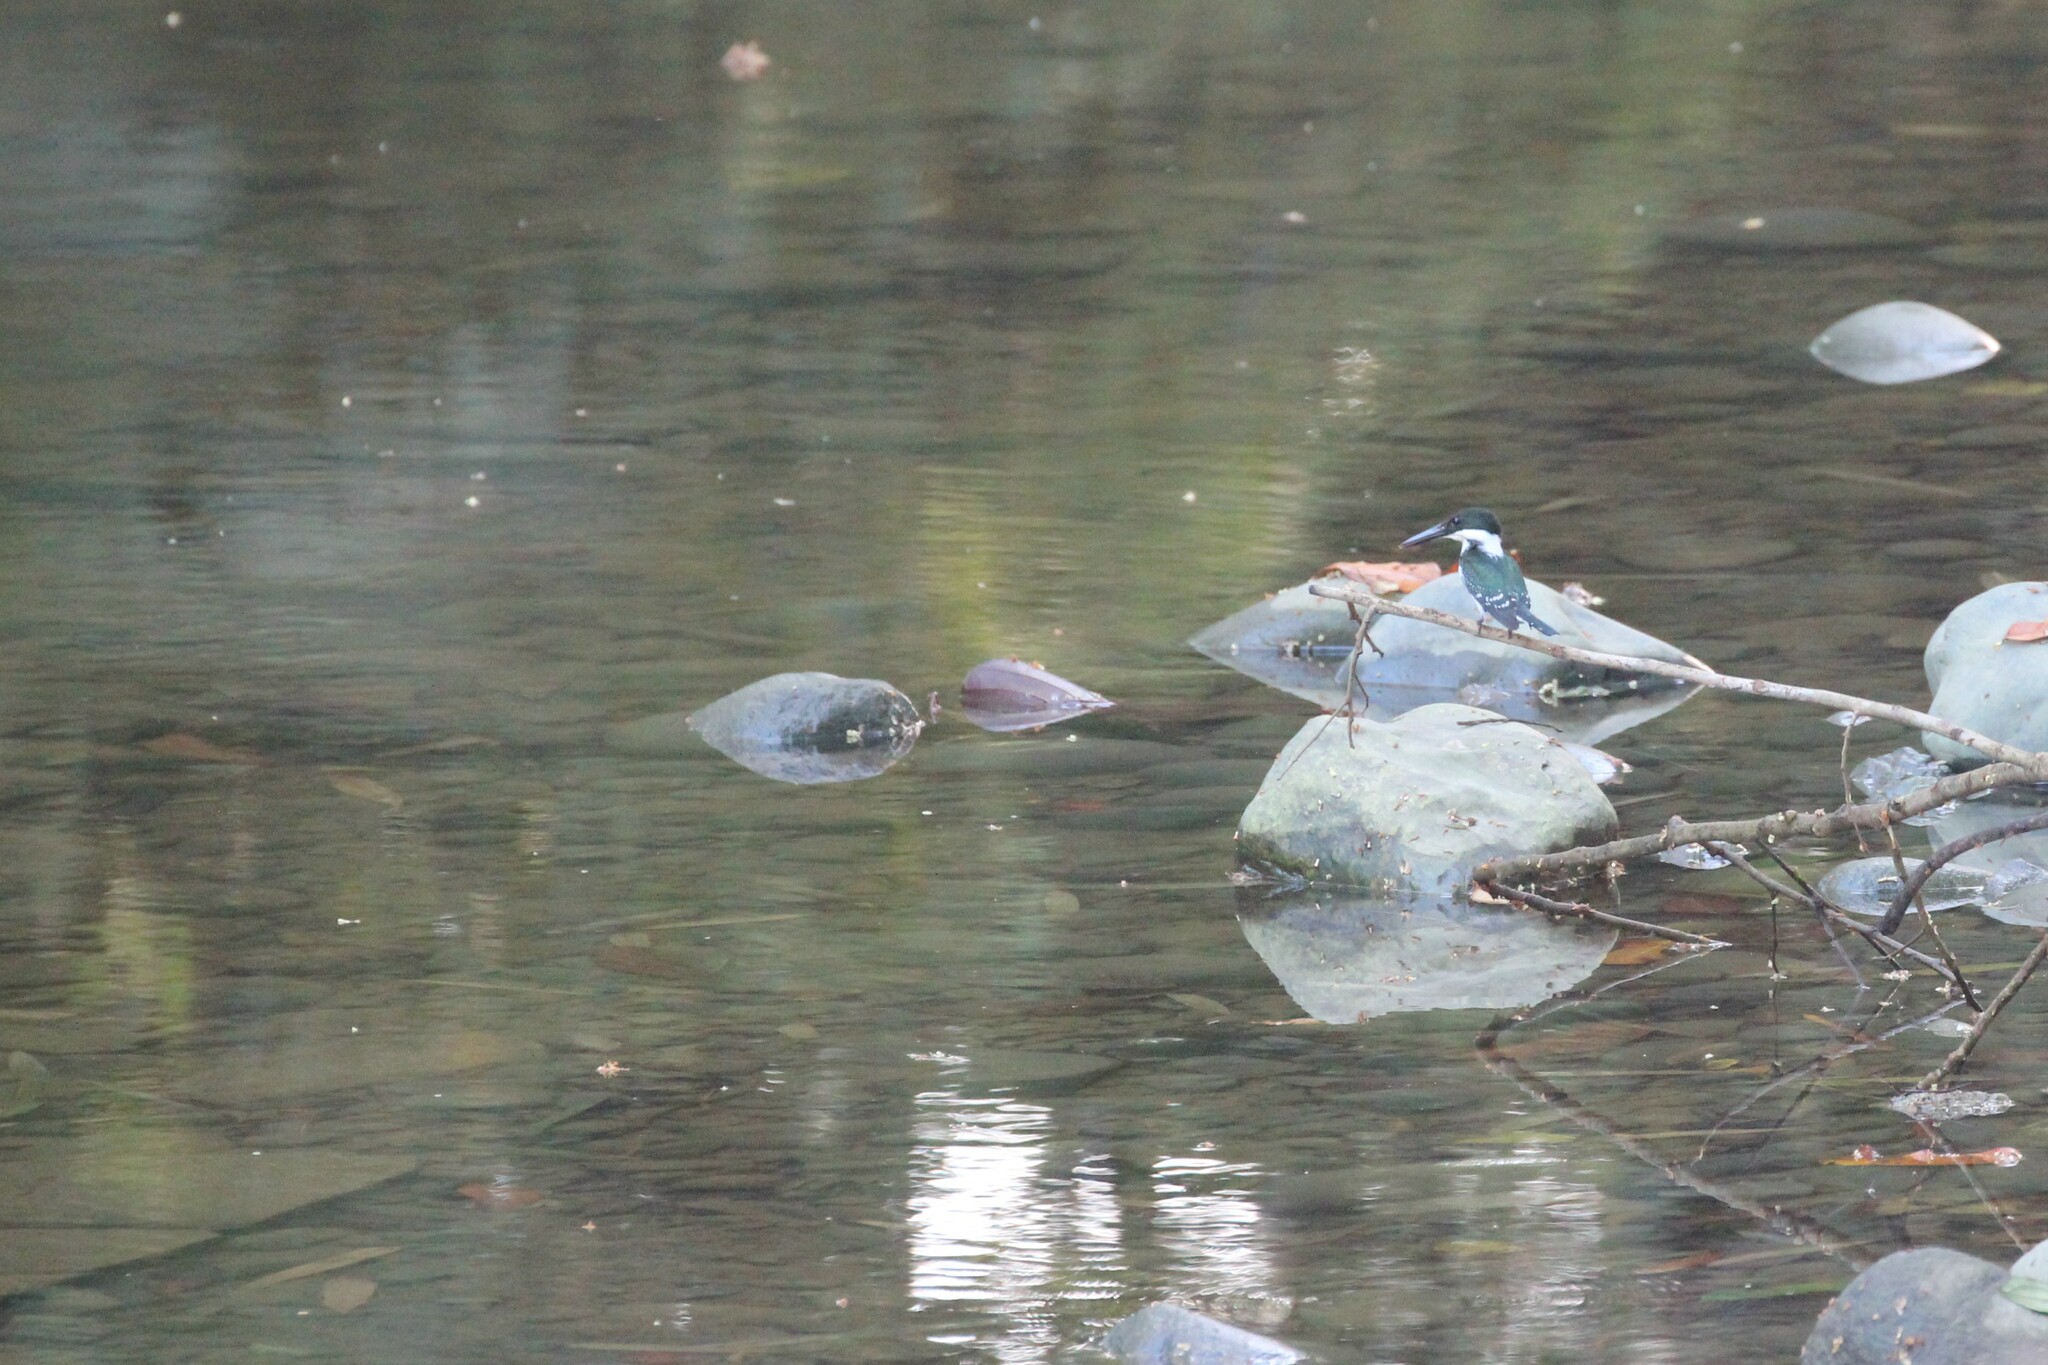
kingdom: Animalia
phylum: Chordata
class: Aves
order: Coraciiformes
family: Alcedinidae
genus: Chloroceryle
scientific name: Chloroceryle americana
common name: Green kingfisher
